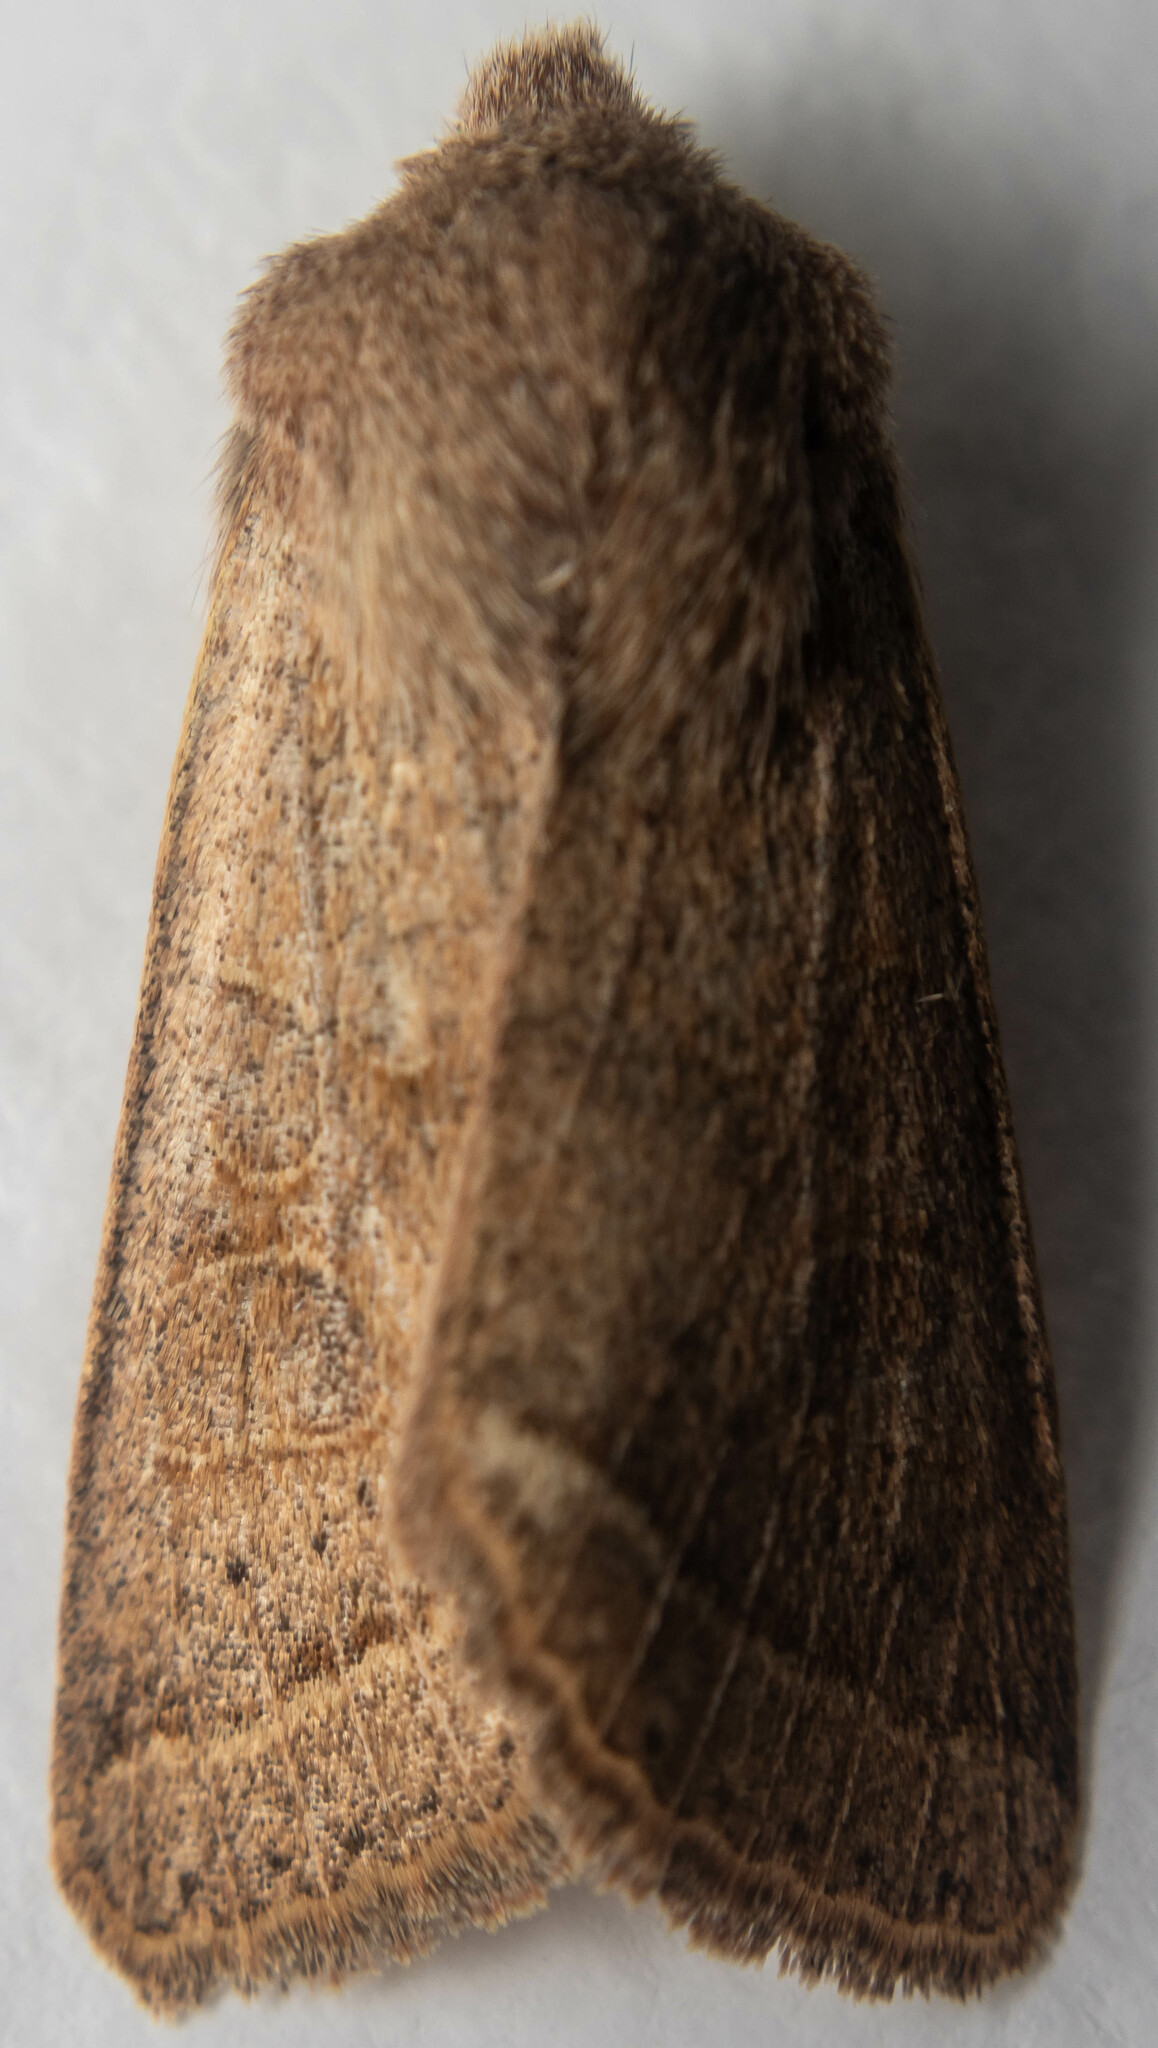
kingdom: Animalia
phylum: Arthropoda
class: Insecta
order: Lepidoptera
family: Noctuidae
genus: Orthosia
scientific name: Orthosia cerasi
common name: Common quaker
